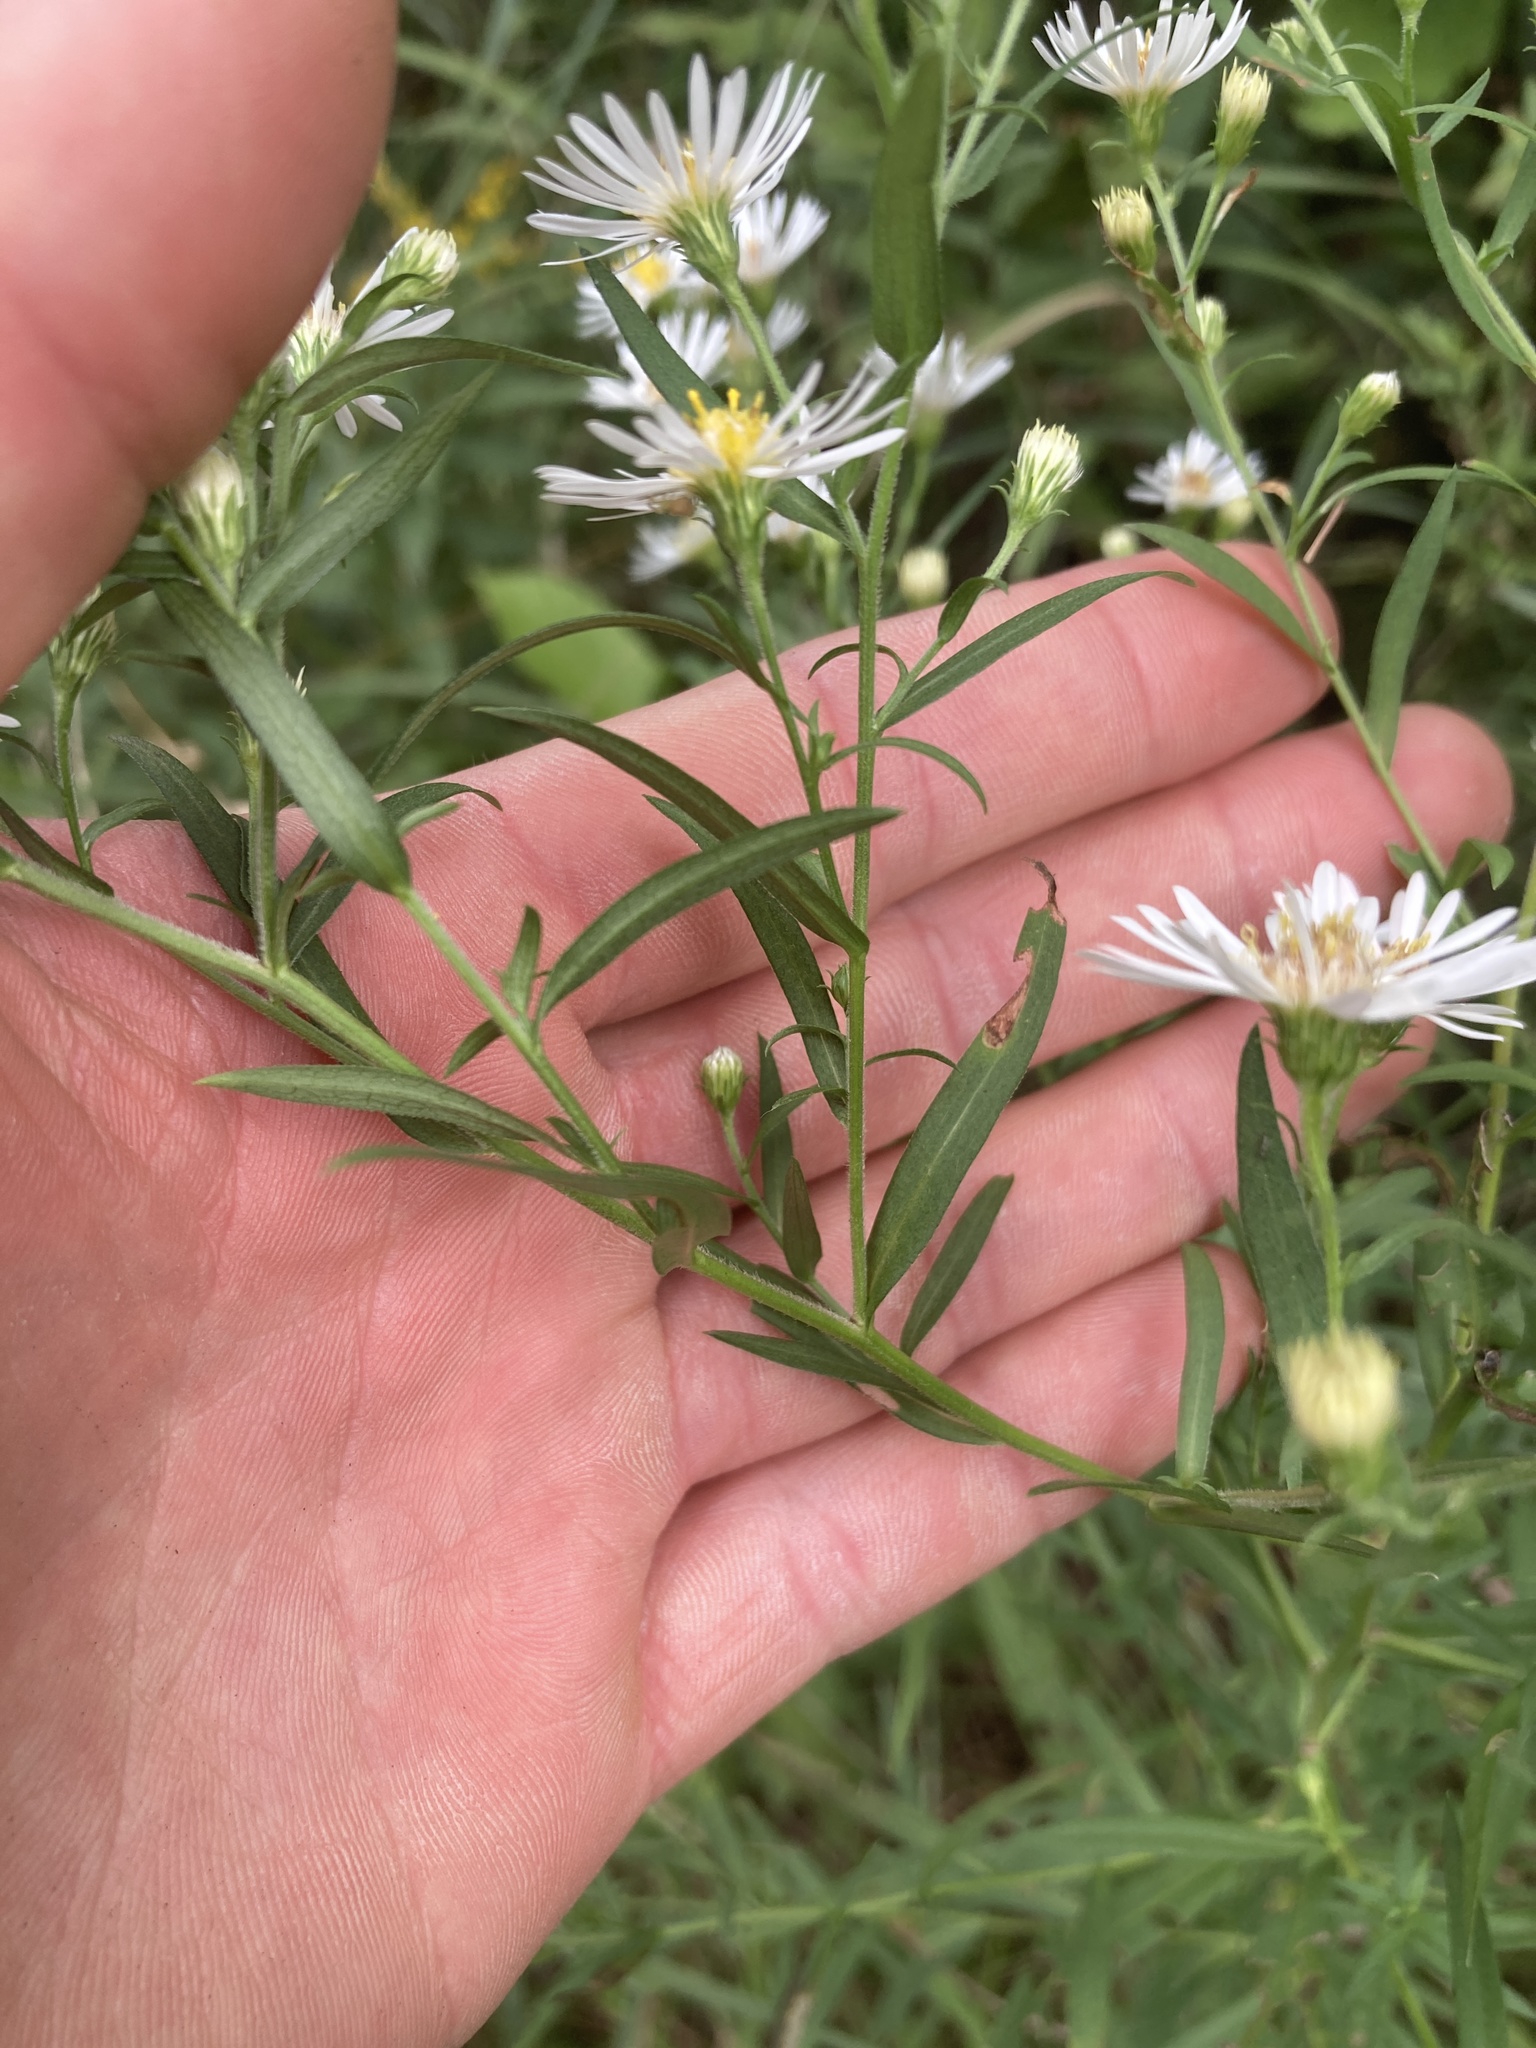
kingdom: Plantae
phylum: Tracheophyta
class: Magnoliopsida
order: Asterales
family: Asteraceae
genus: Symphyotrichum
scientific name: Symphyotrichum lanceolatum
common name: Panicled aster
